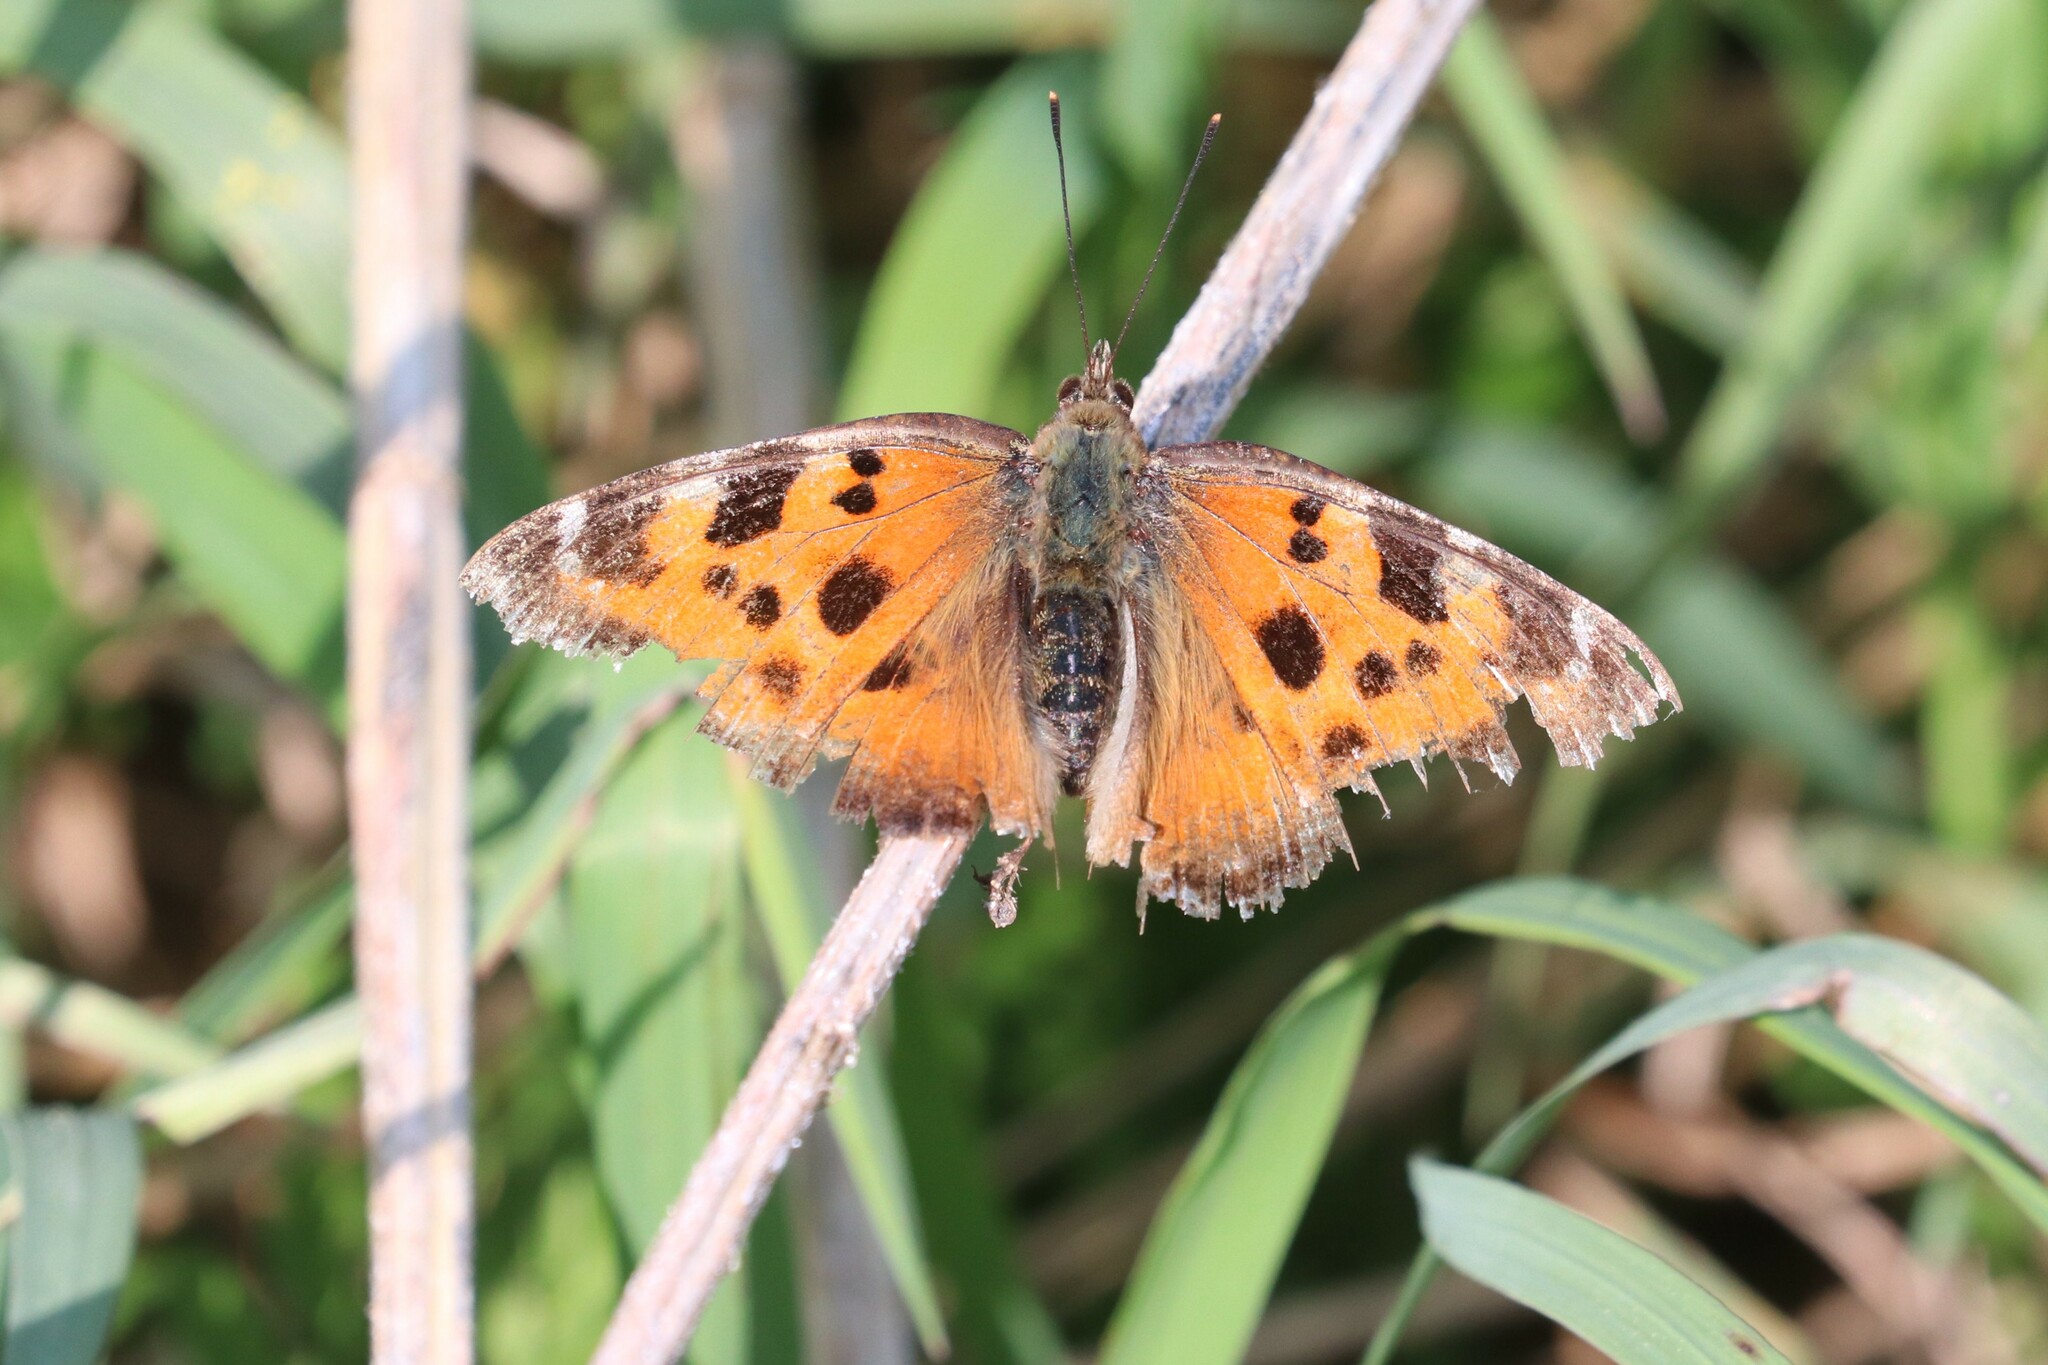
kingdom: Animalia
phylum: Arthropoda
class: Insecta
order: Lepidoptera
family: Nymphalidae
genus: Nymphalis
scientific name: Nymphalis xanthomelas
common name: Scarce tortoiseshell
